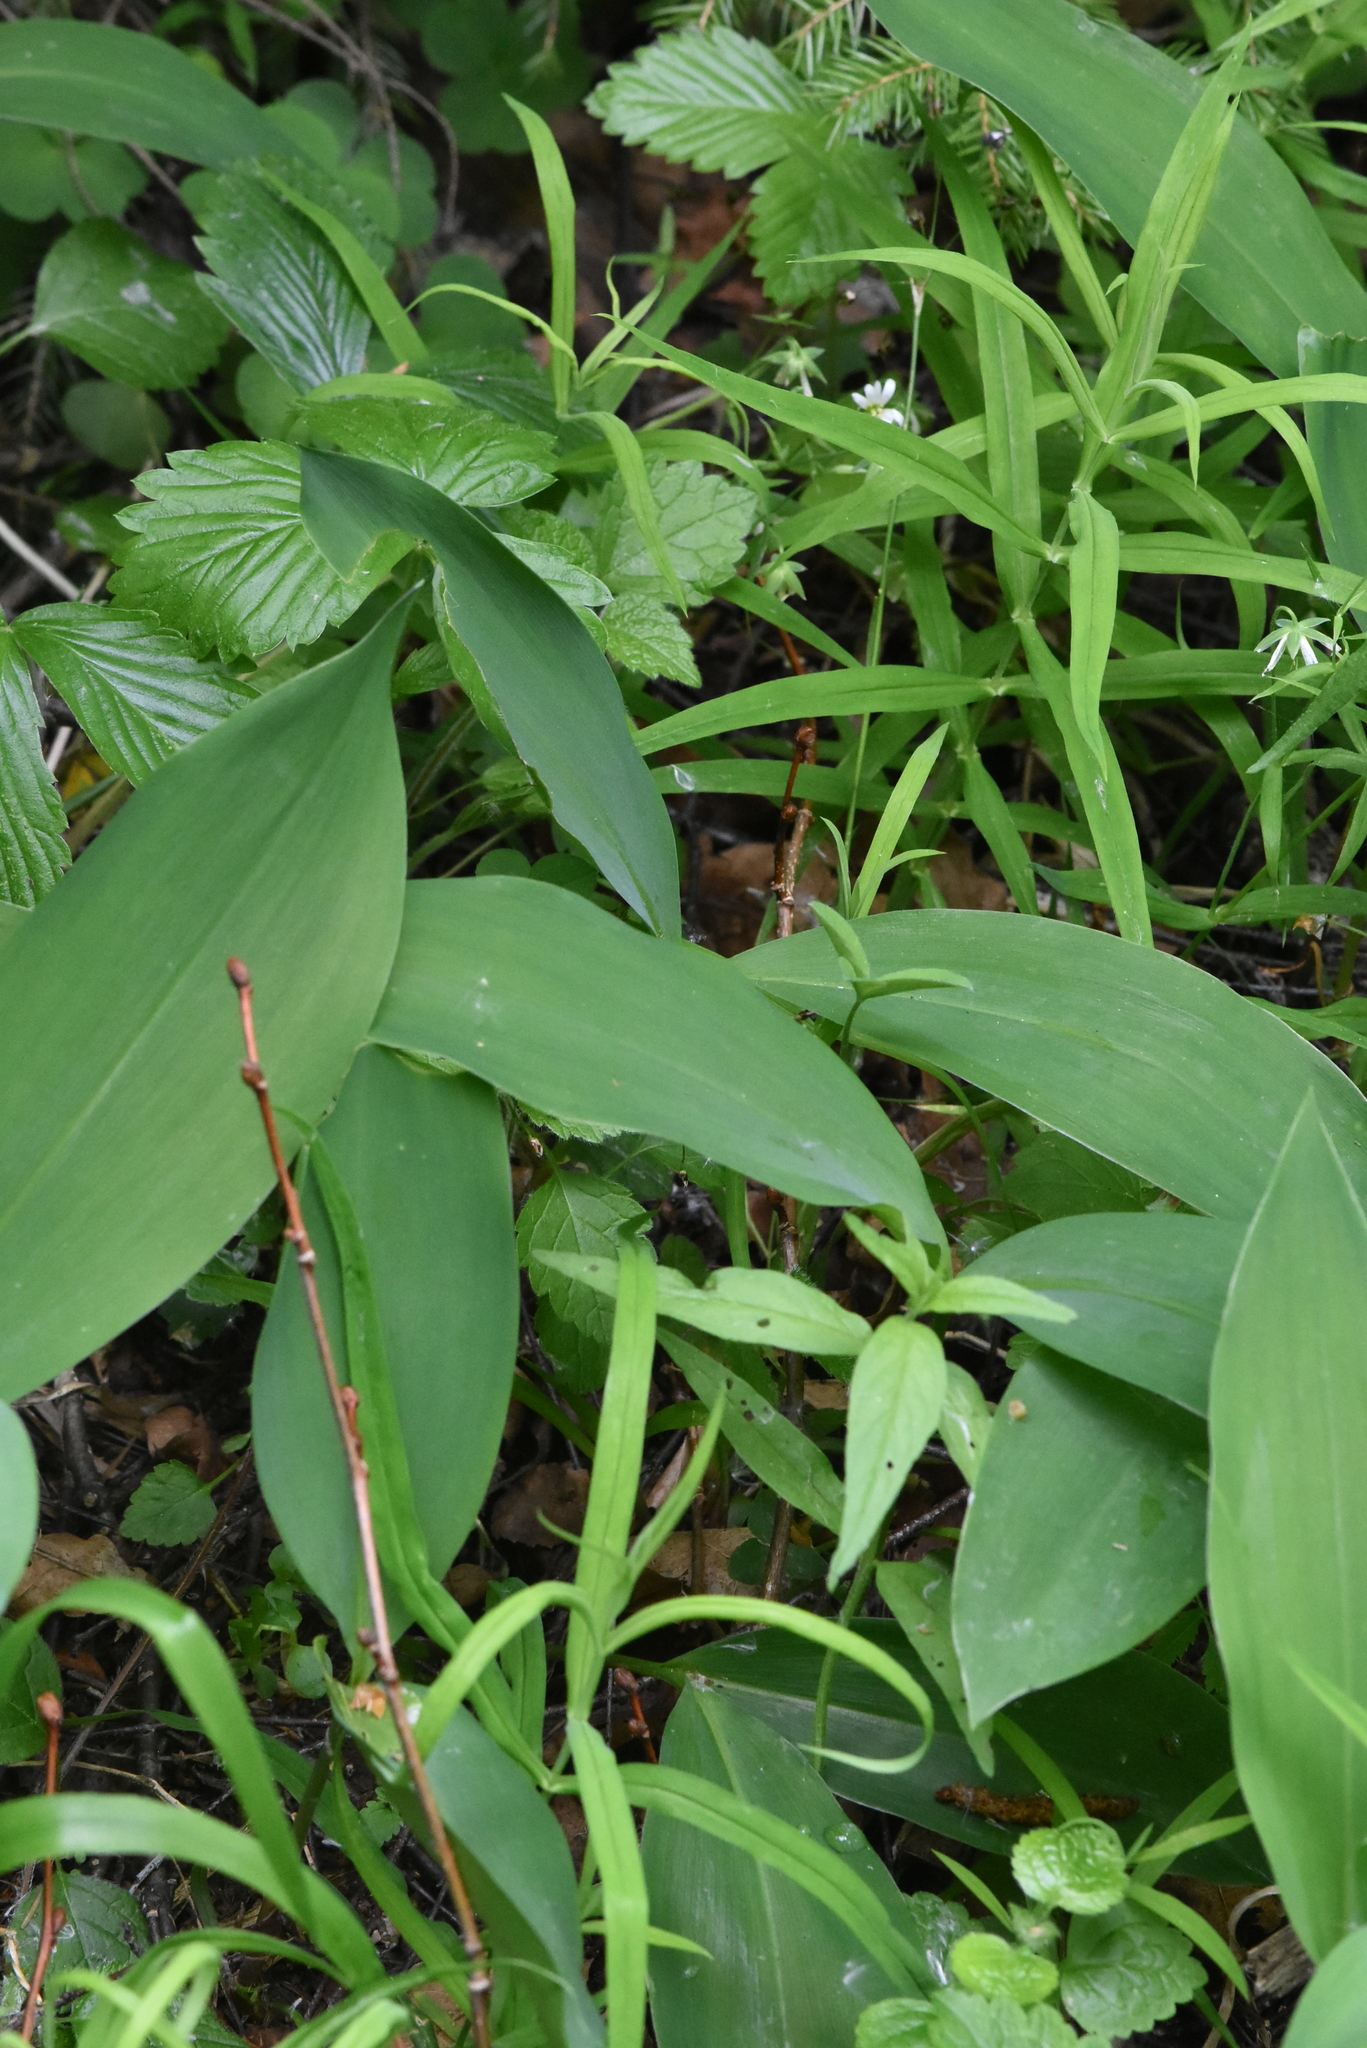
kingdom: Plantae
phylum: Tracheophyta
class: Liliopsida
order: Asparagales
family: Asparagaceae
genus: Convallaria
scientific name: Convallaria majalis
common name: Lily-of-the-valley
